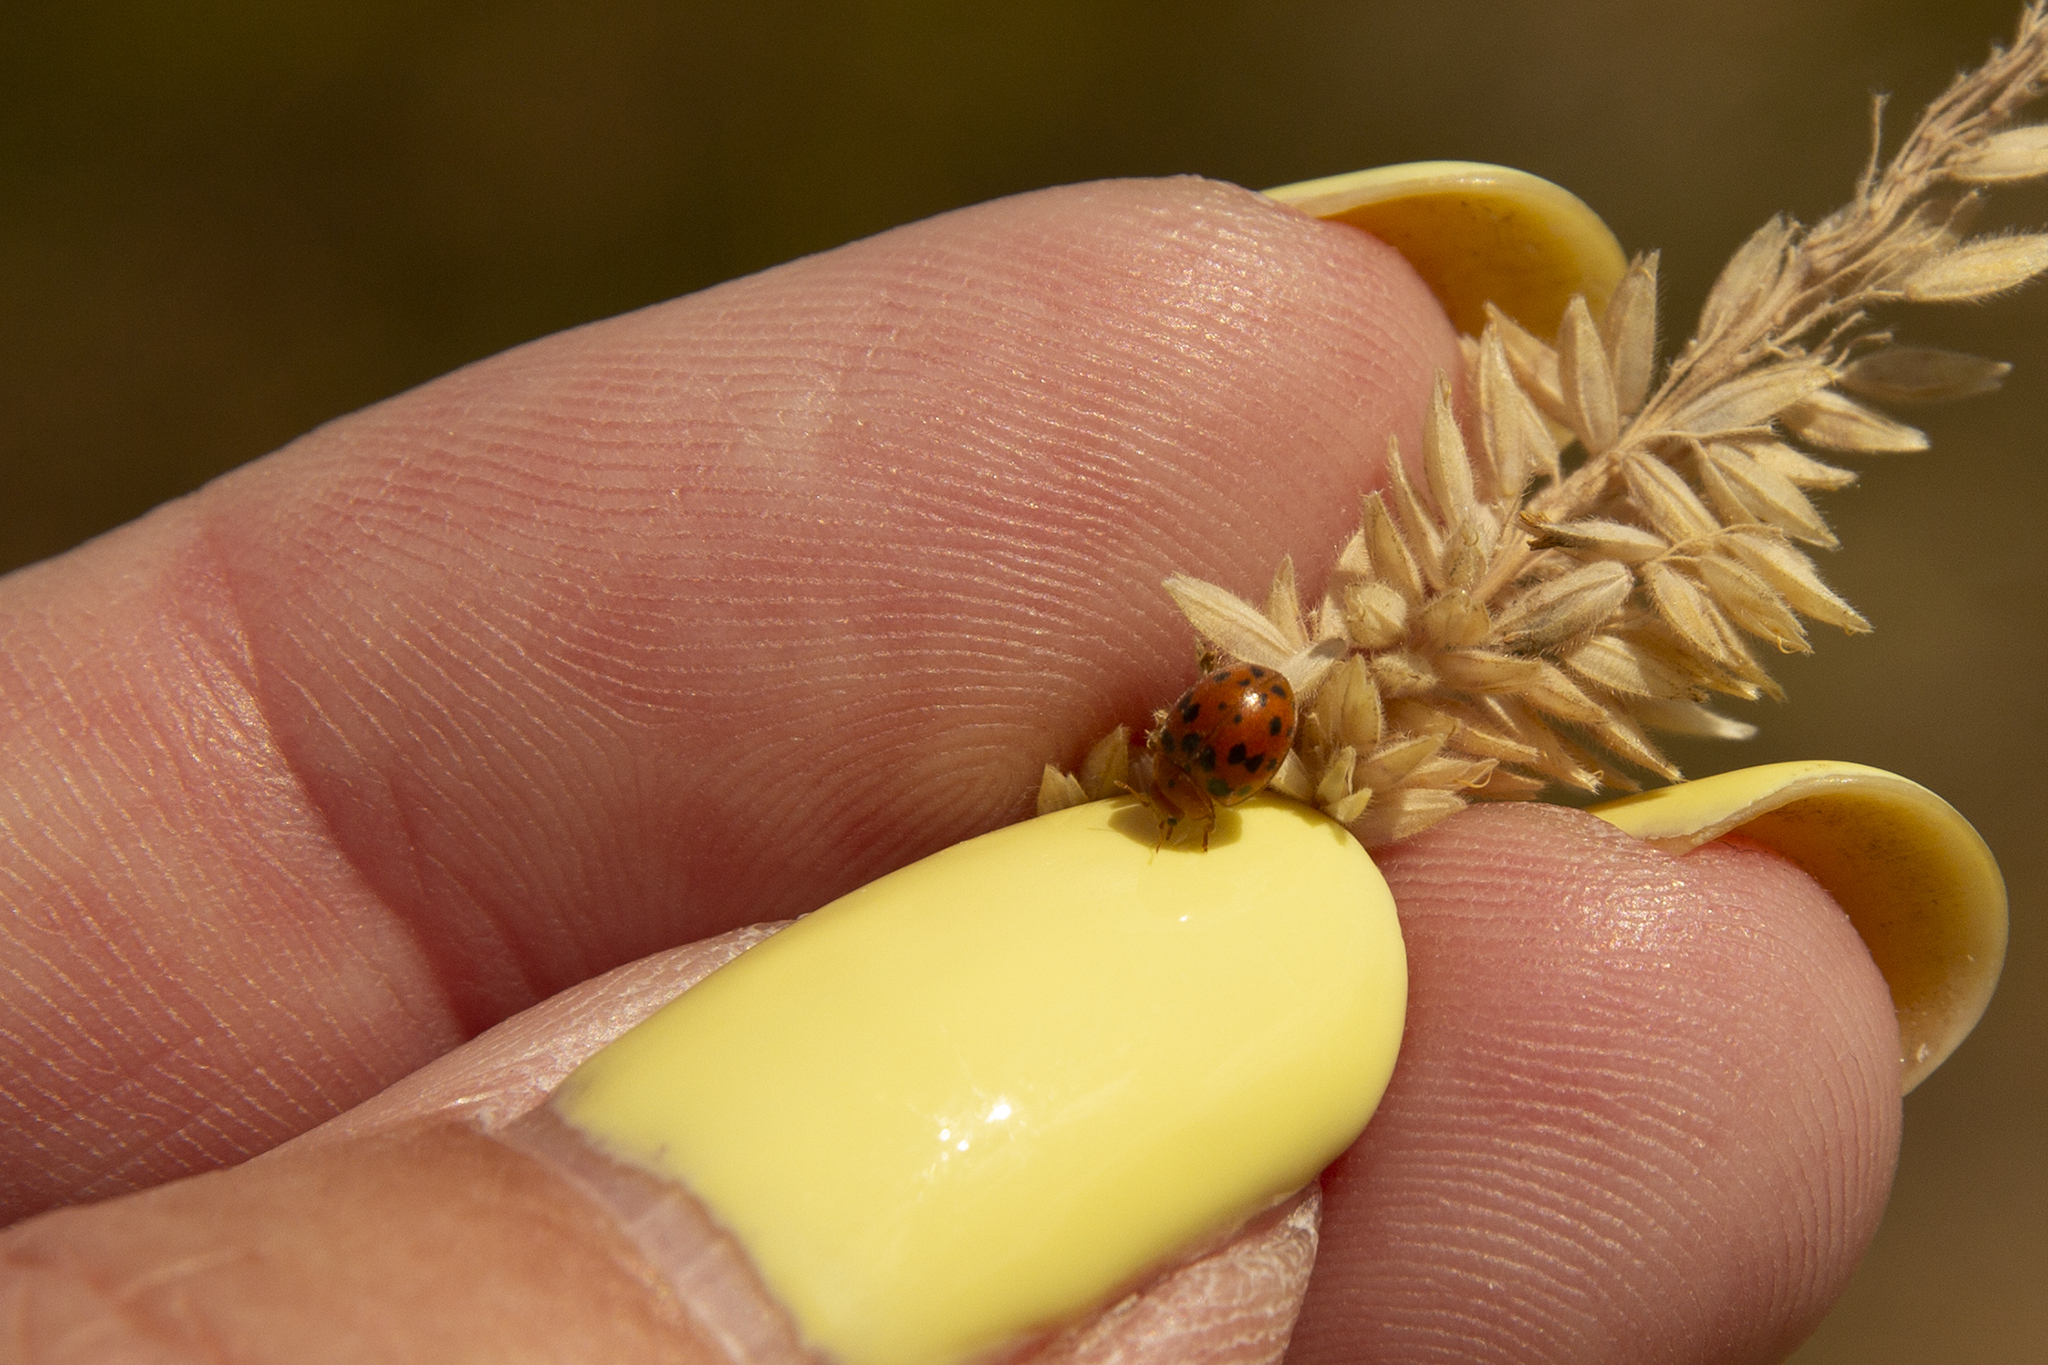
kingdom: Animalia
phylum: Arthropoda
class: Insecta
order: Coleoptera
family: Coccinellidae
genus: Subcoccinella
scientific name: Subcoccinella vigintiquatuorpunctata
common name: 24-spot ladybird
